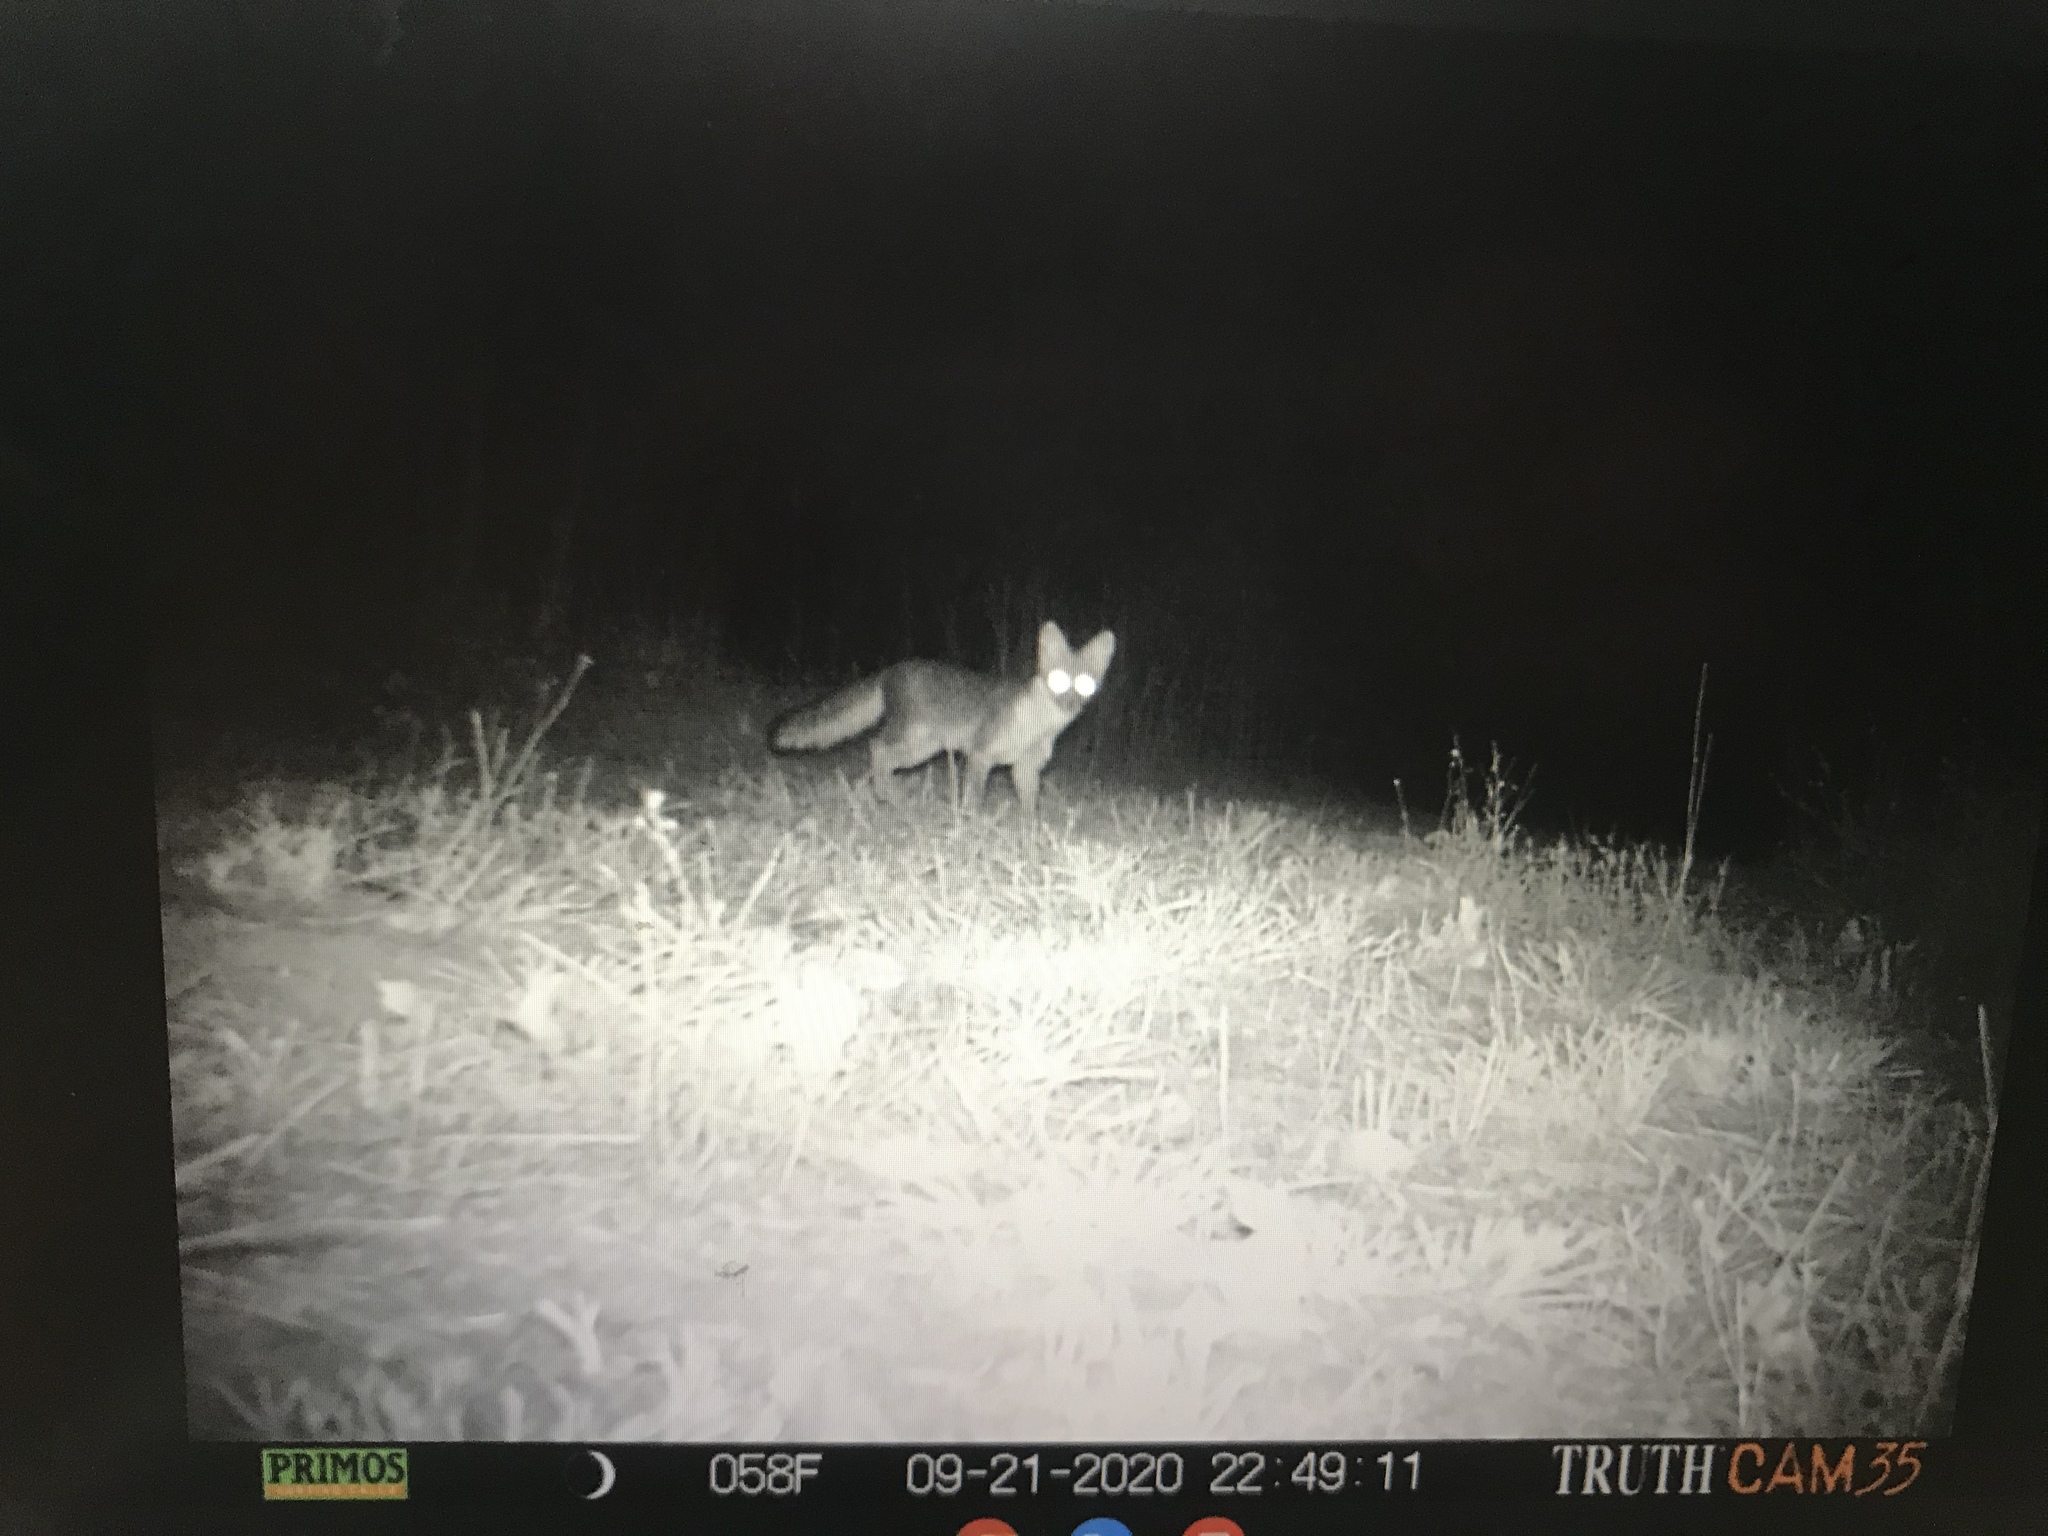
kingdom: Animalia
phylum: Chordata
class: Mammalia
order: Carnivora
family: Canidae
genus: Urocyon
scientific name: Urocyon cinereoargenteus
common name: Gray fox
